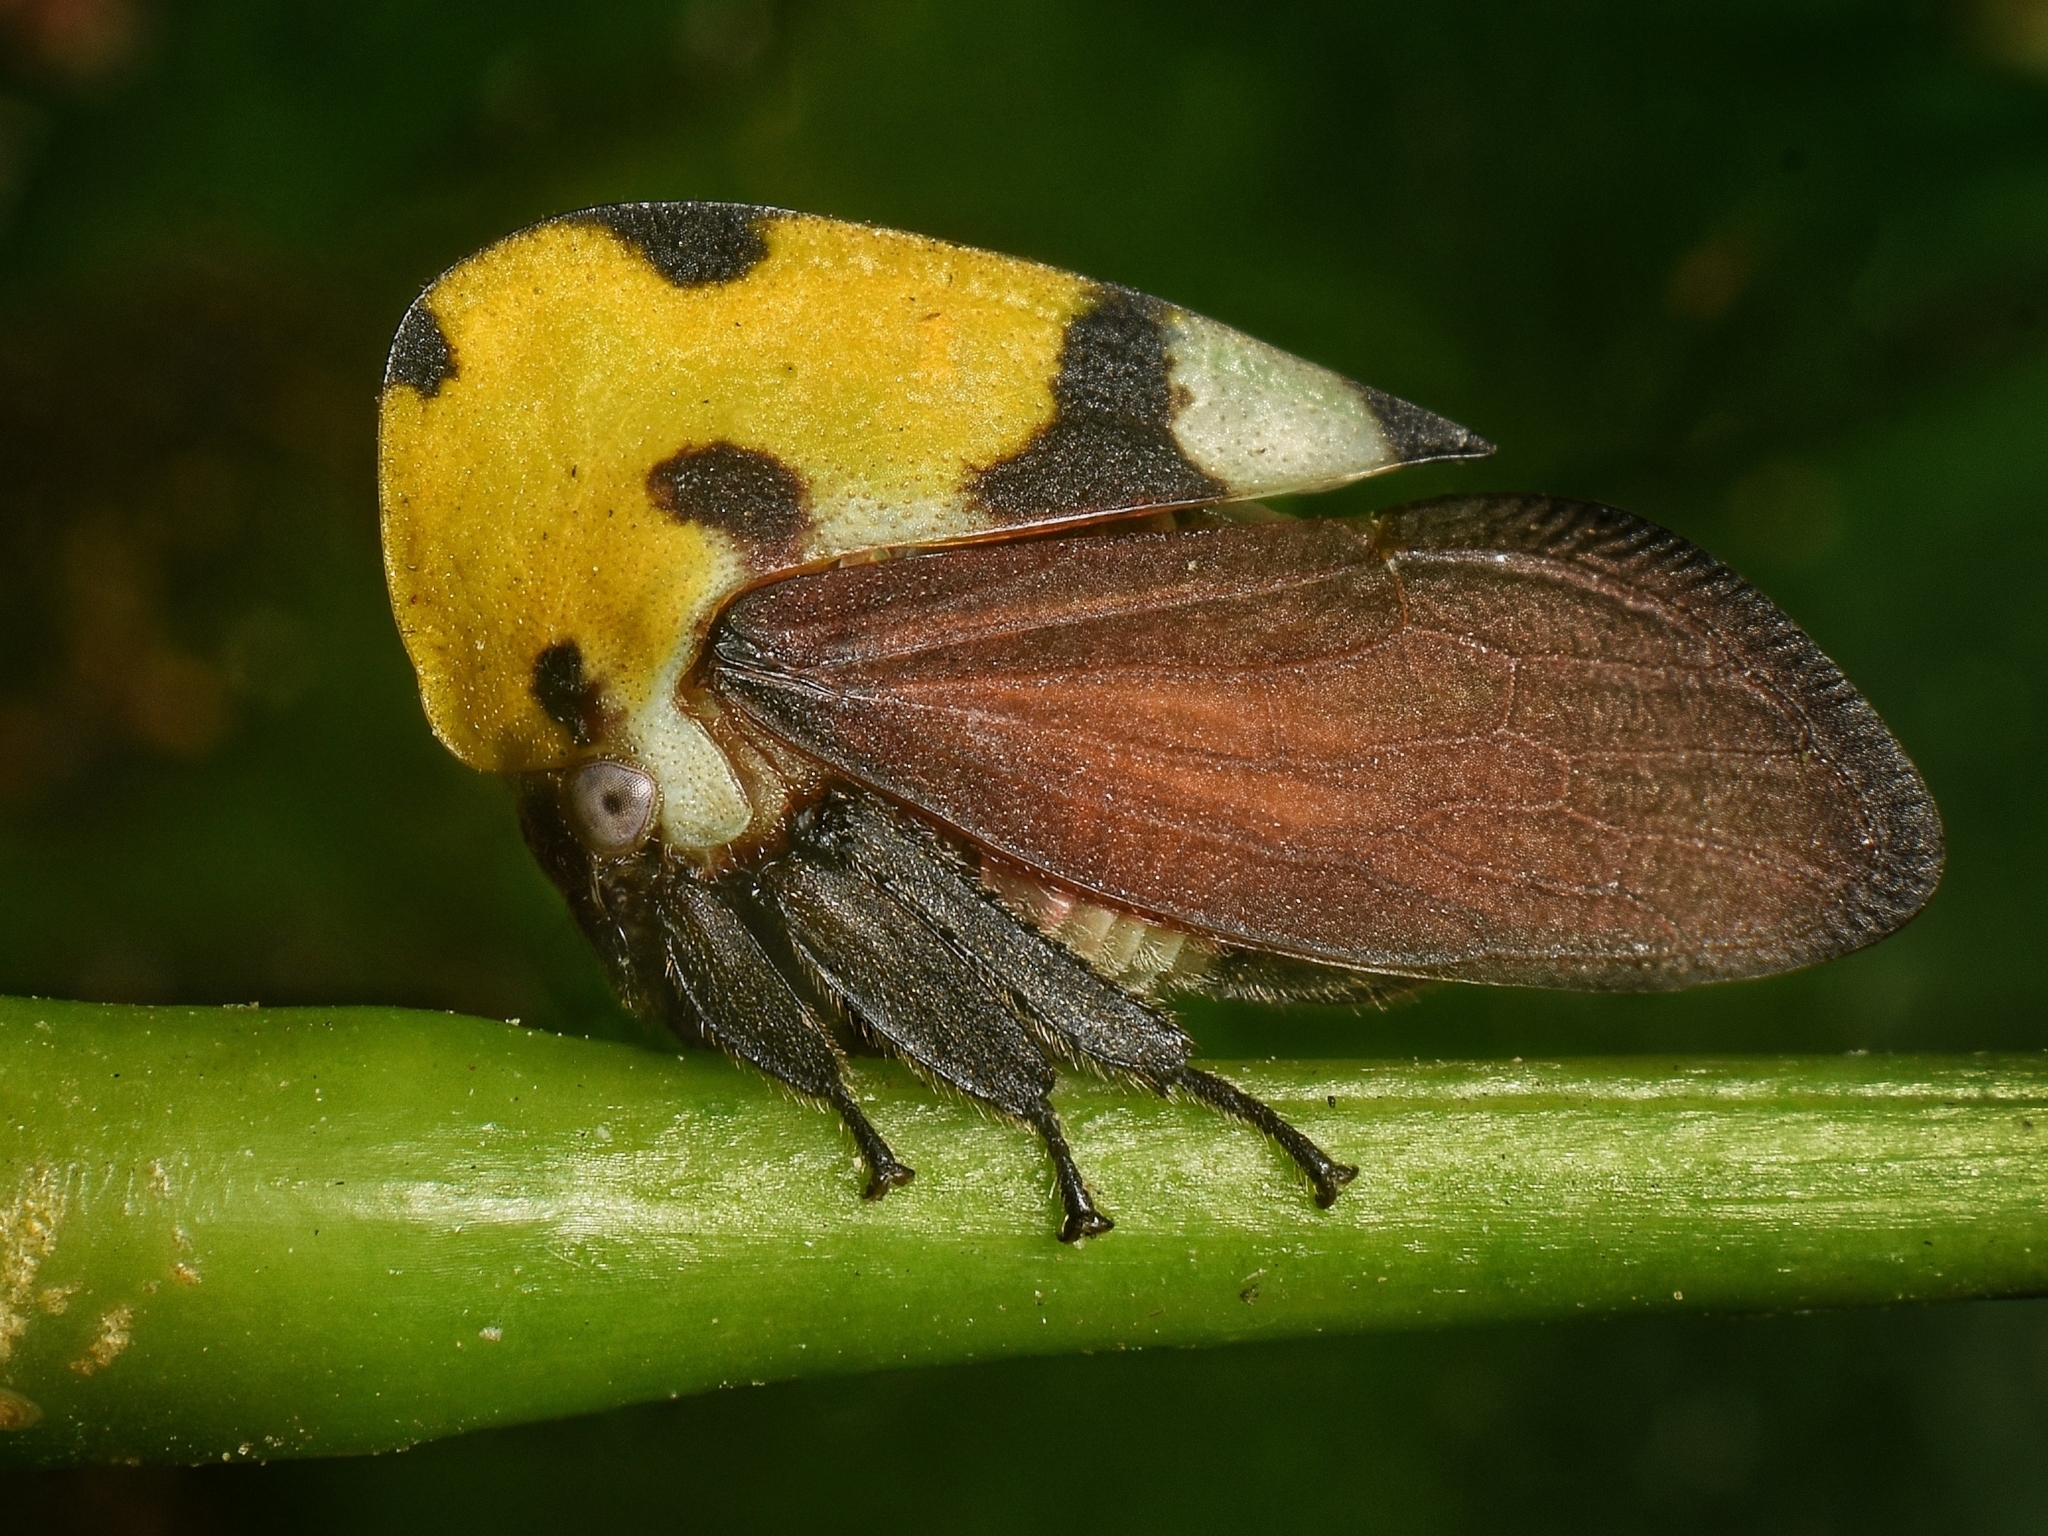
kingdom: Animalia
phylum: Arthropoda
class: Insecta
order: Hemiptera
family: Membracidae
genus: Membracis
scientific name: Membracis mexicana
